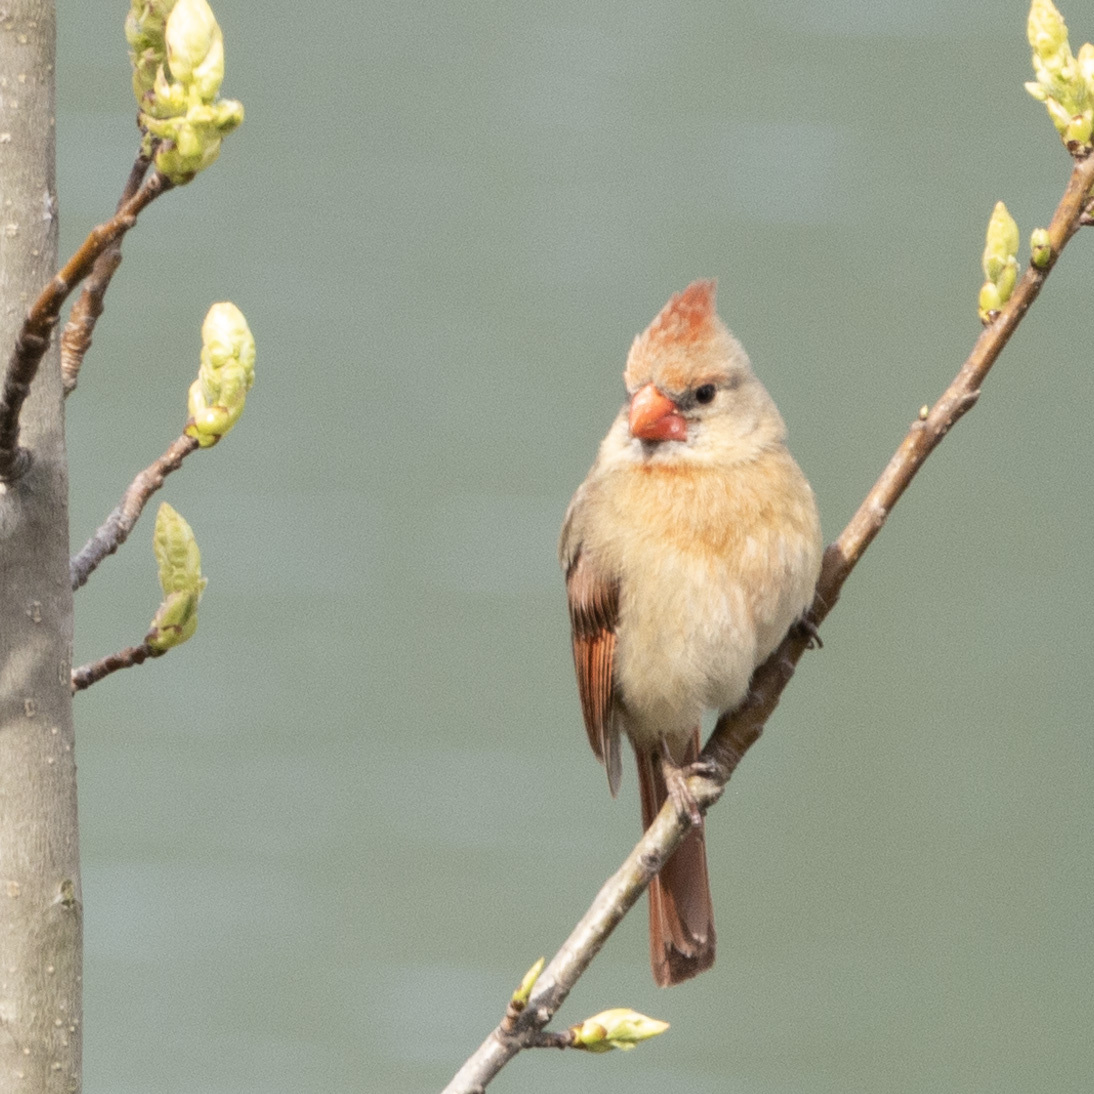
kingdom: Animalia
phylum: Chordata
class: Aves
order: Passeriformes
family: Cardinalidae
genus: Cardinalis
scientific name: Cardinalis cardinalis
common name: Northern cardinal
